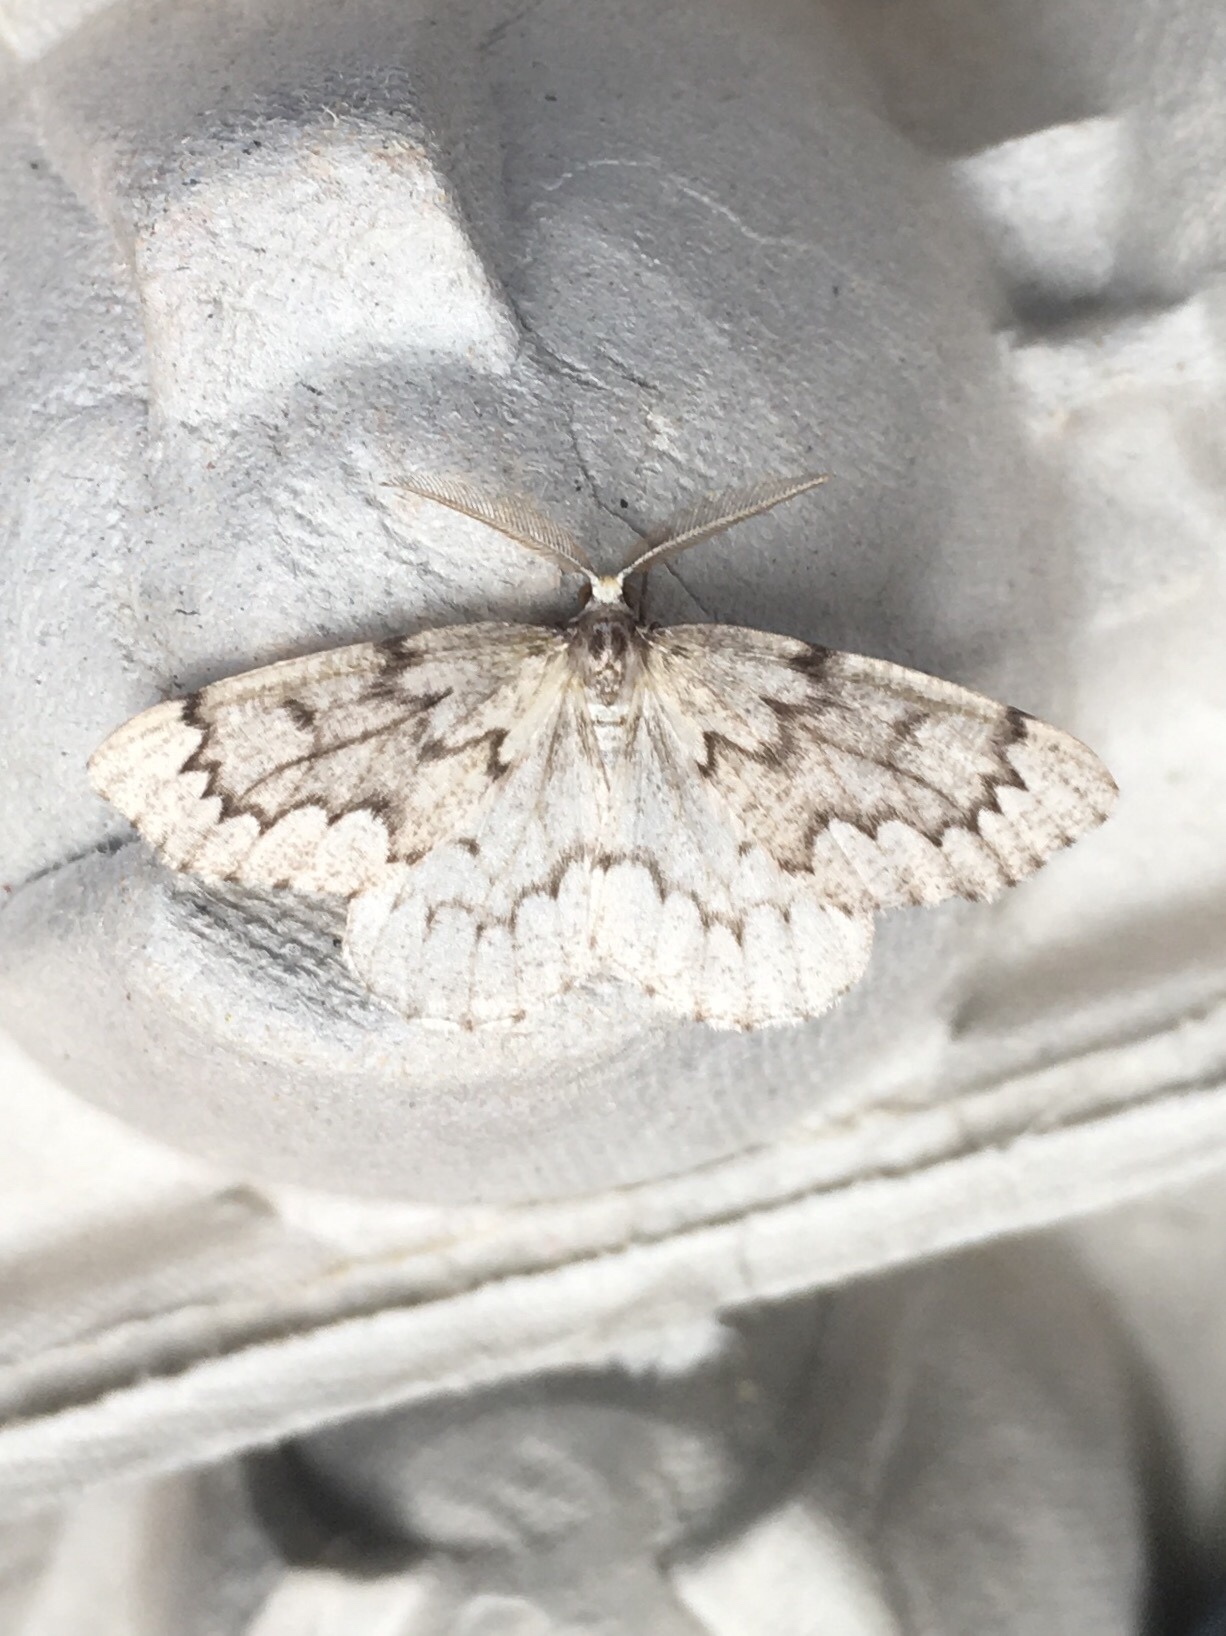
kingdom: Animalia
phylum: Arthropoda
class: Insecta
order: Lepidoptera
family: Geometridae
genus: Nepytia
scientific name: Nepytia canosaria
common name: False hemlock looper
